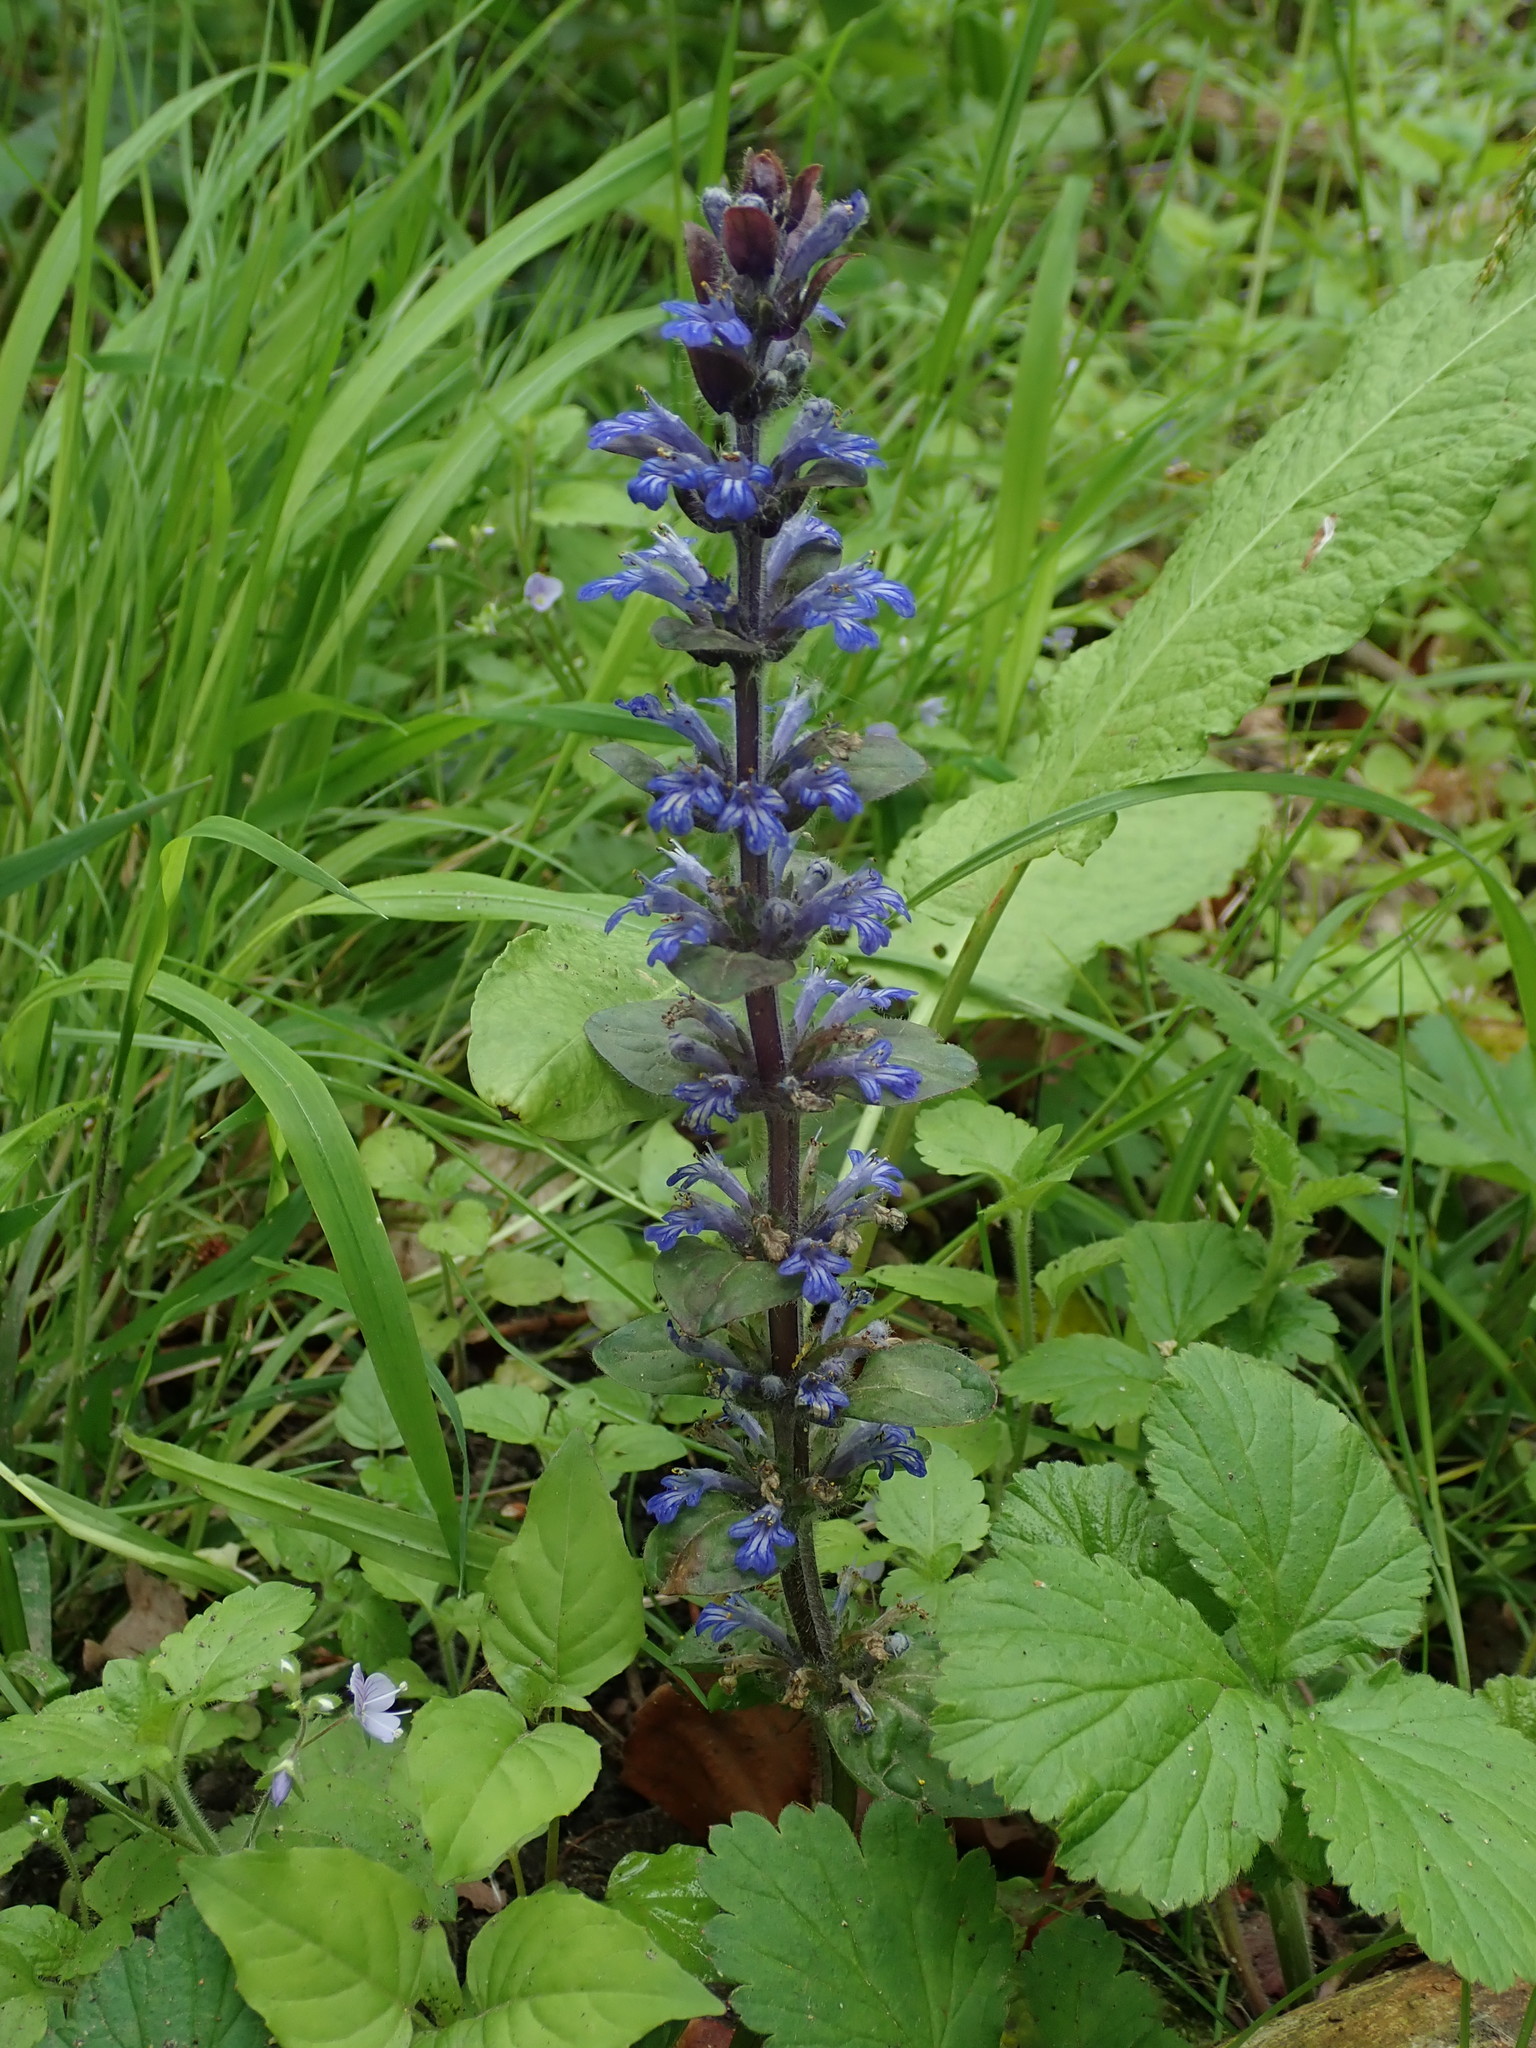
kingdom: Plantae
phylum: Tracheophyta
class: Magnoliopsida
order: Lamiales
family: Lamiaceae
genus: Ajuga
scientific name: Ajuga reptans
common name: Bugle
